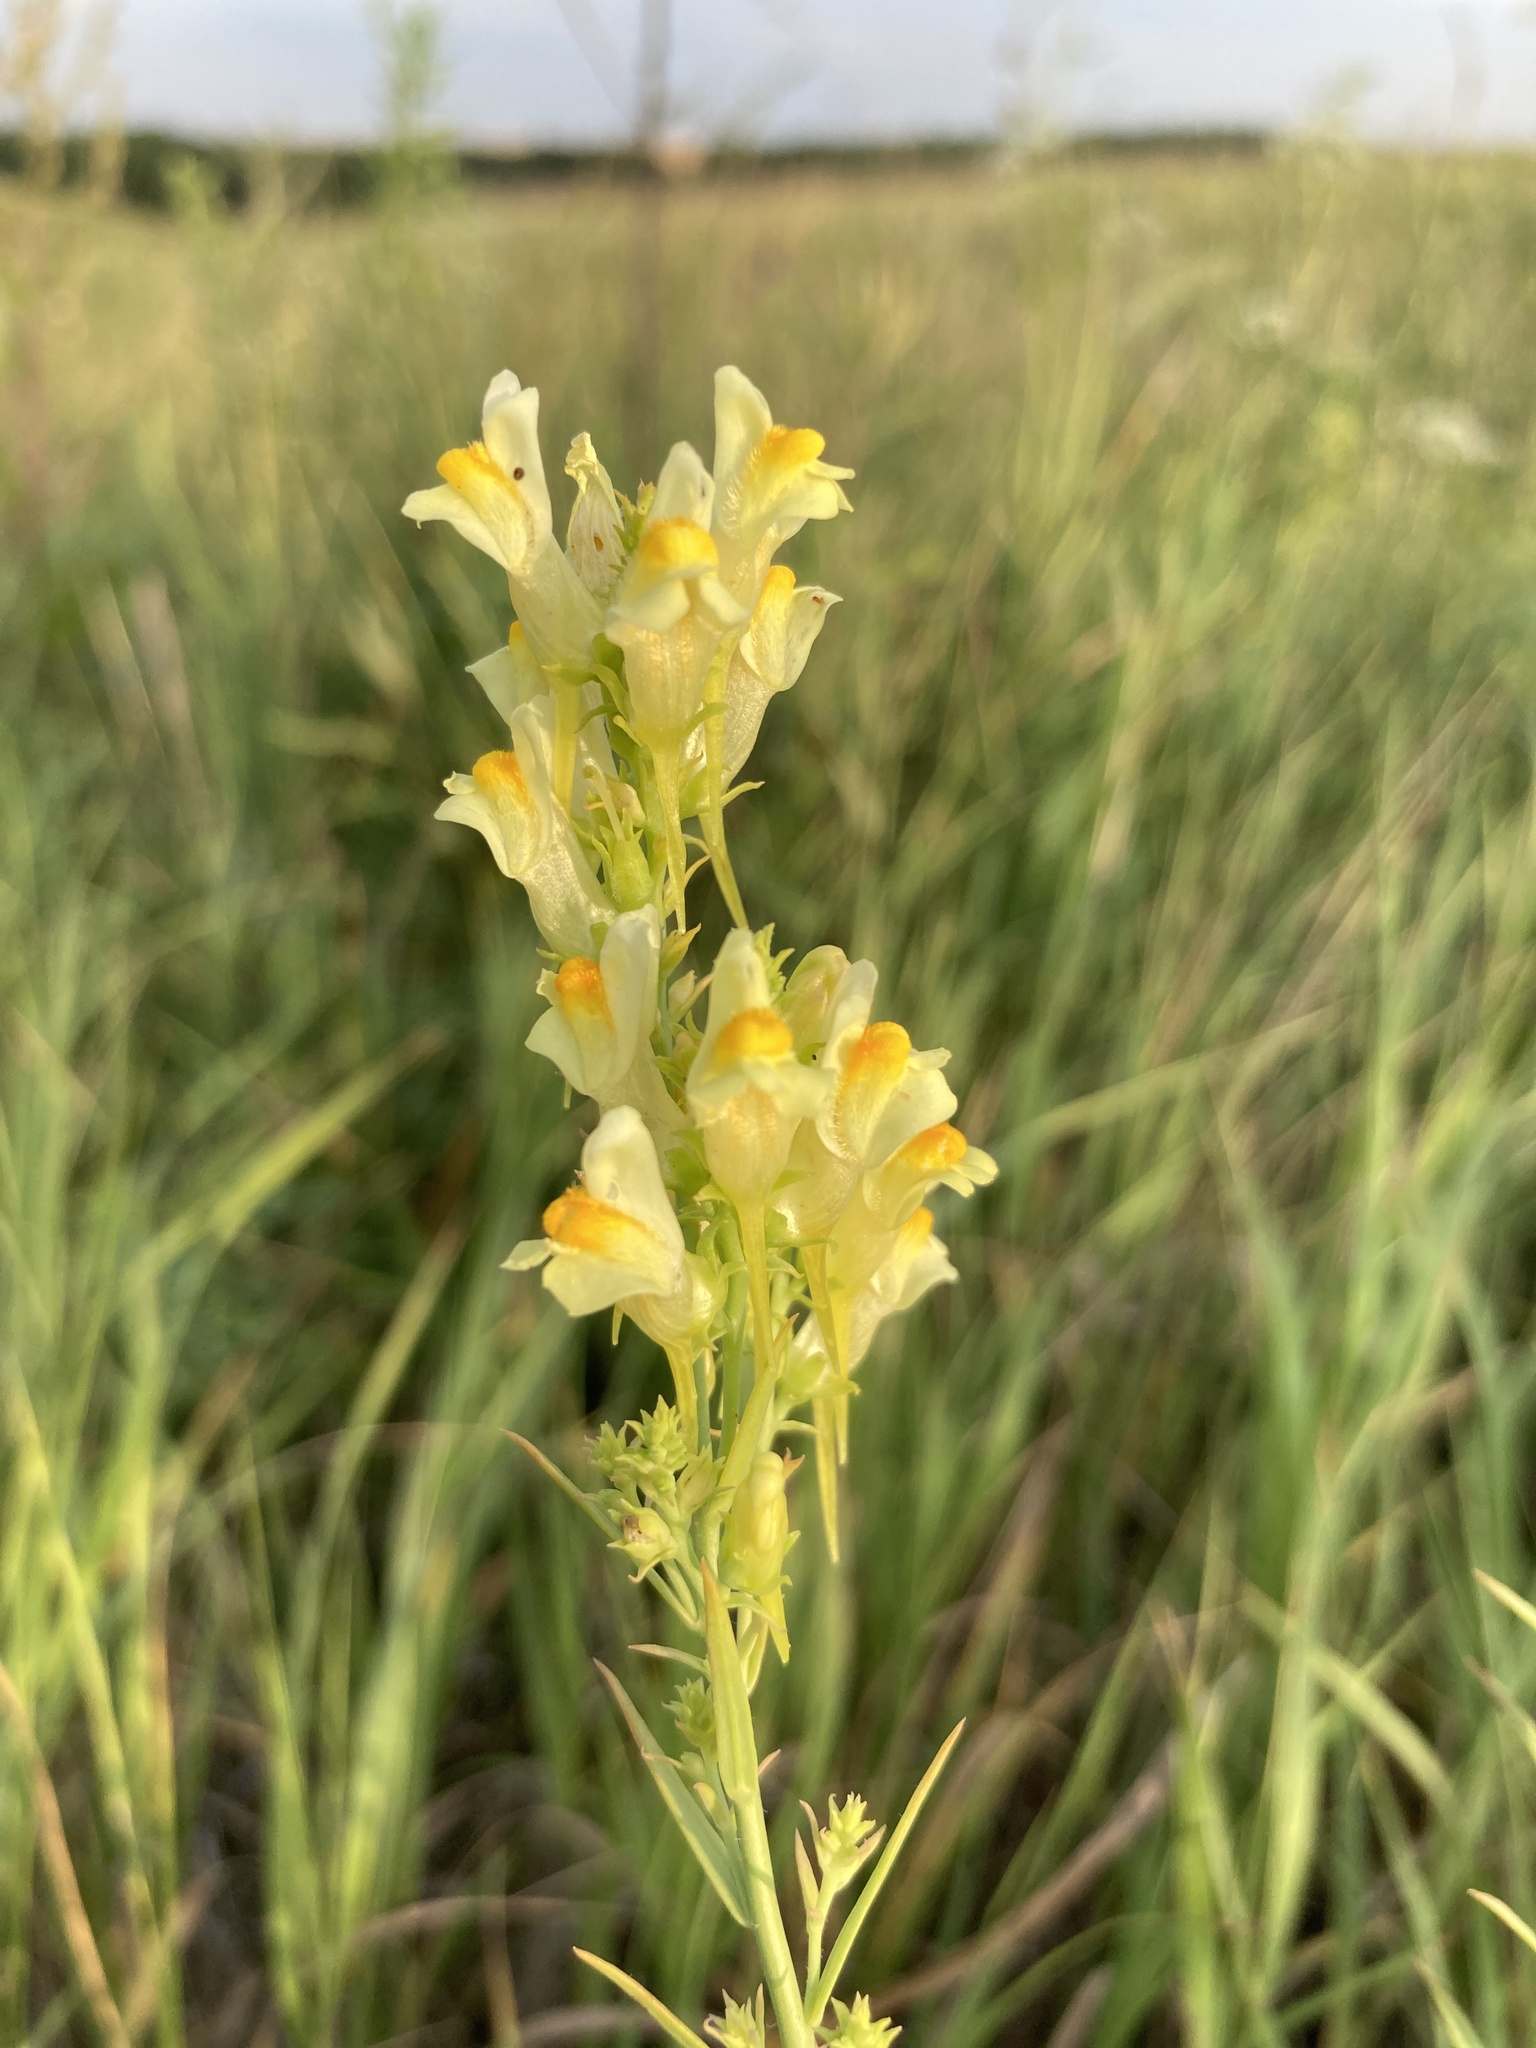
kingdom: Plantae
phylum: Tracheophyta
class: Magnoliopsida
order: Lamiales
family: Plantaginaceae
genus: Linaria
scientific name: Linaria vulgaris
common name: Butter and eggs
